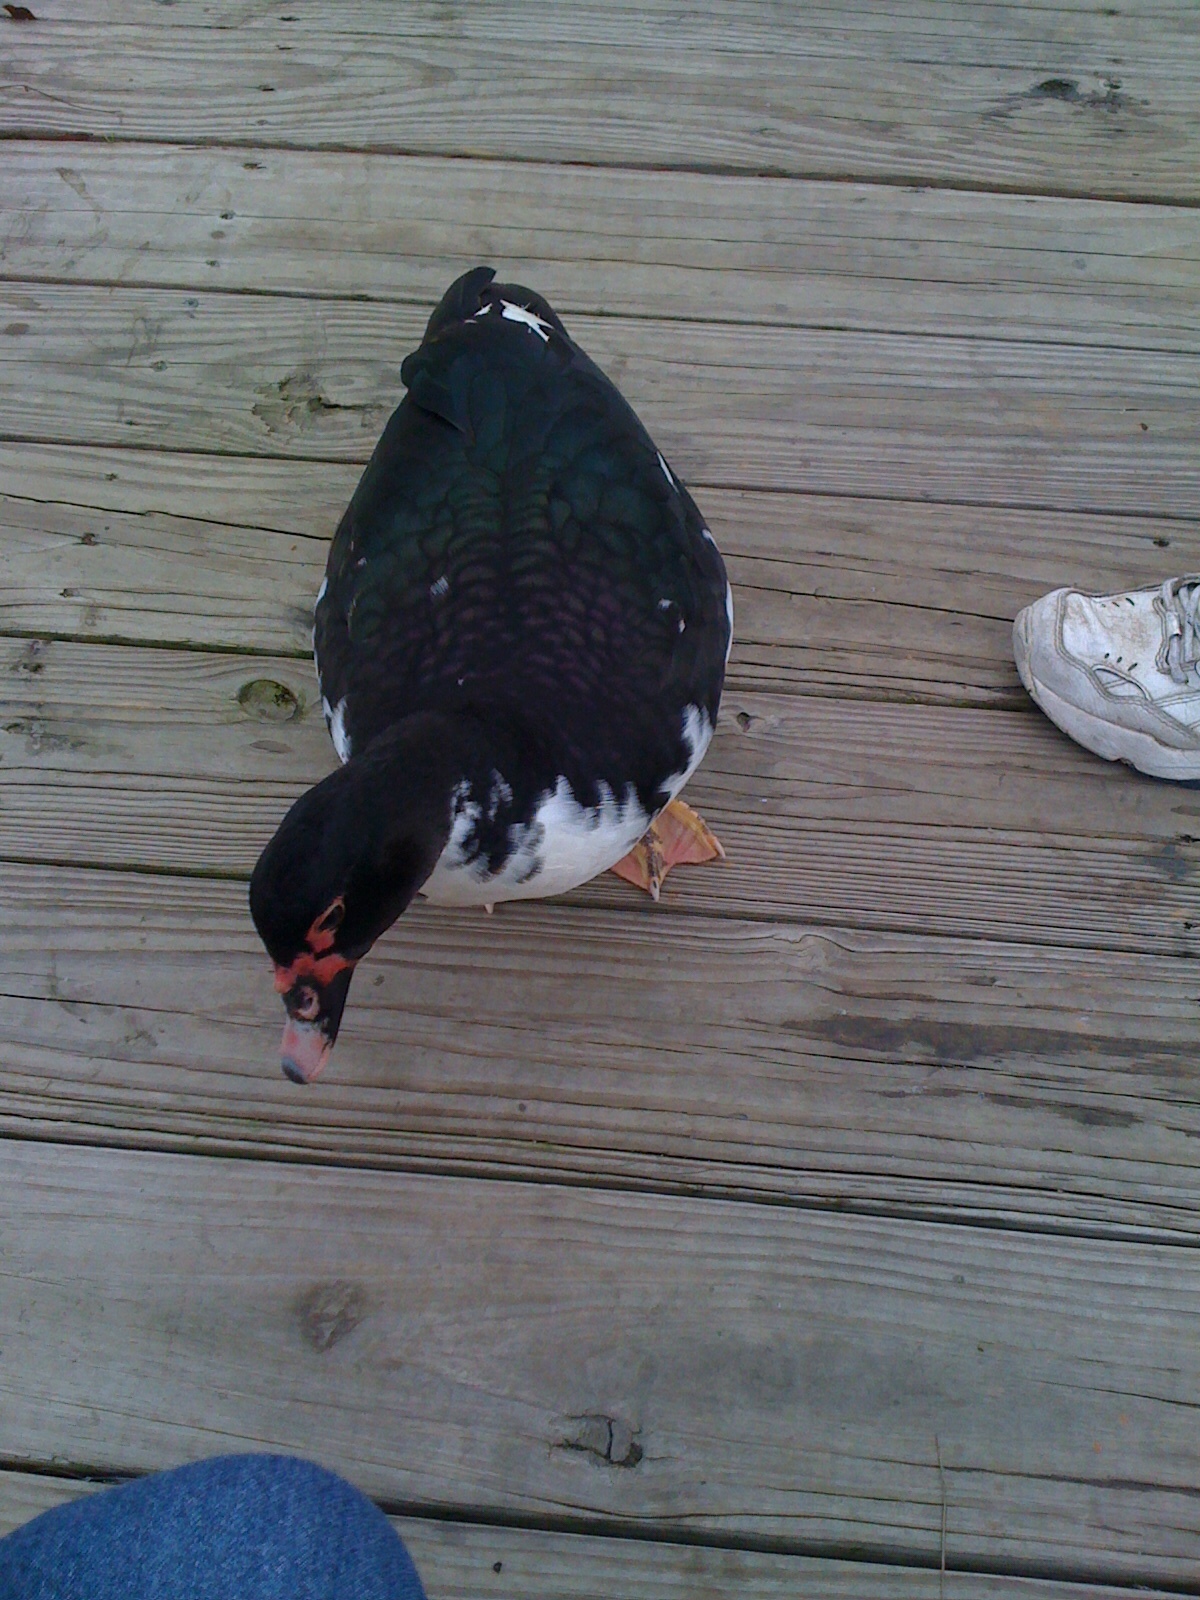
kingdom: Animalia
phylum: Chordata
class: Aves
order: Anseriformes
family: Anatidae
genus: Cairina
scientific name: Cairina moschata
